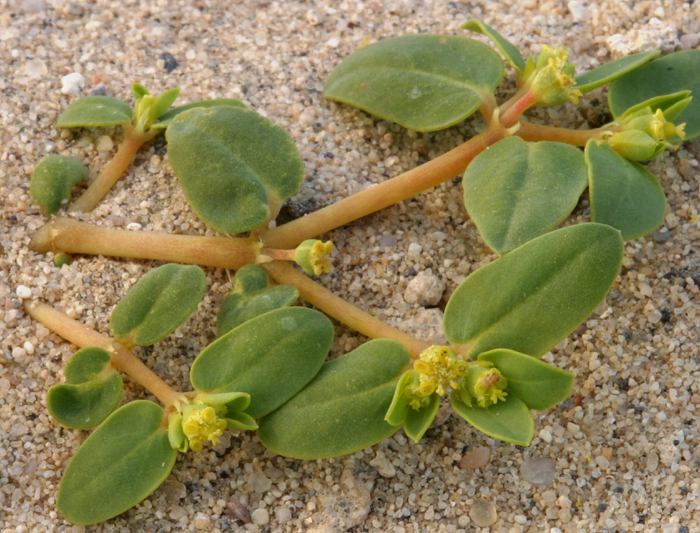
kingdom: Plantae
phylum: Tracheophyta
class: Magnoliopsida
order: Malpighiales
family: Euphorbiaceae
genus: Euphorbia
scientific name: Euphorbia ocellata
